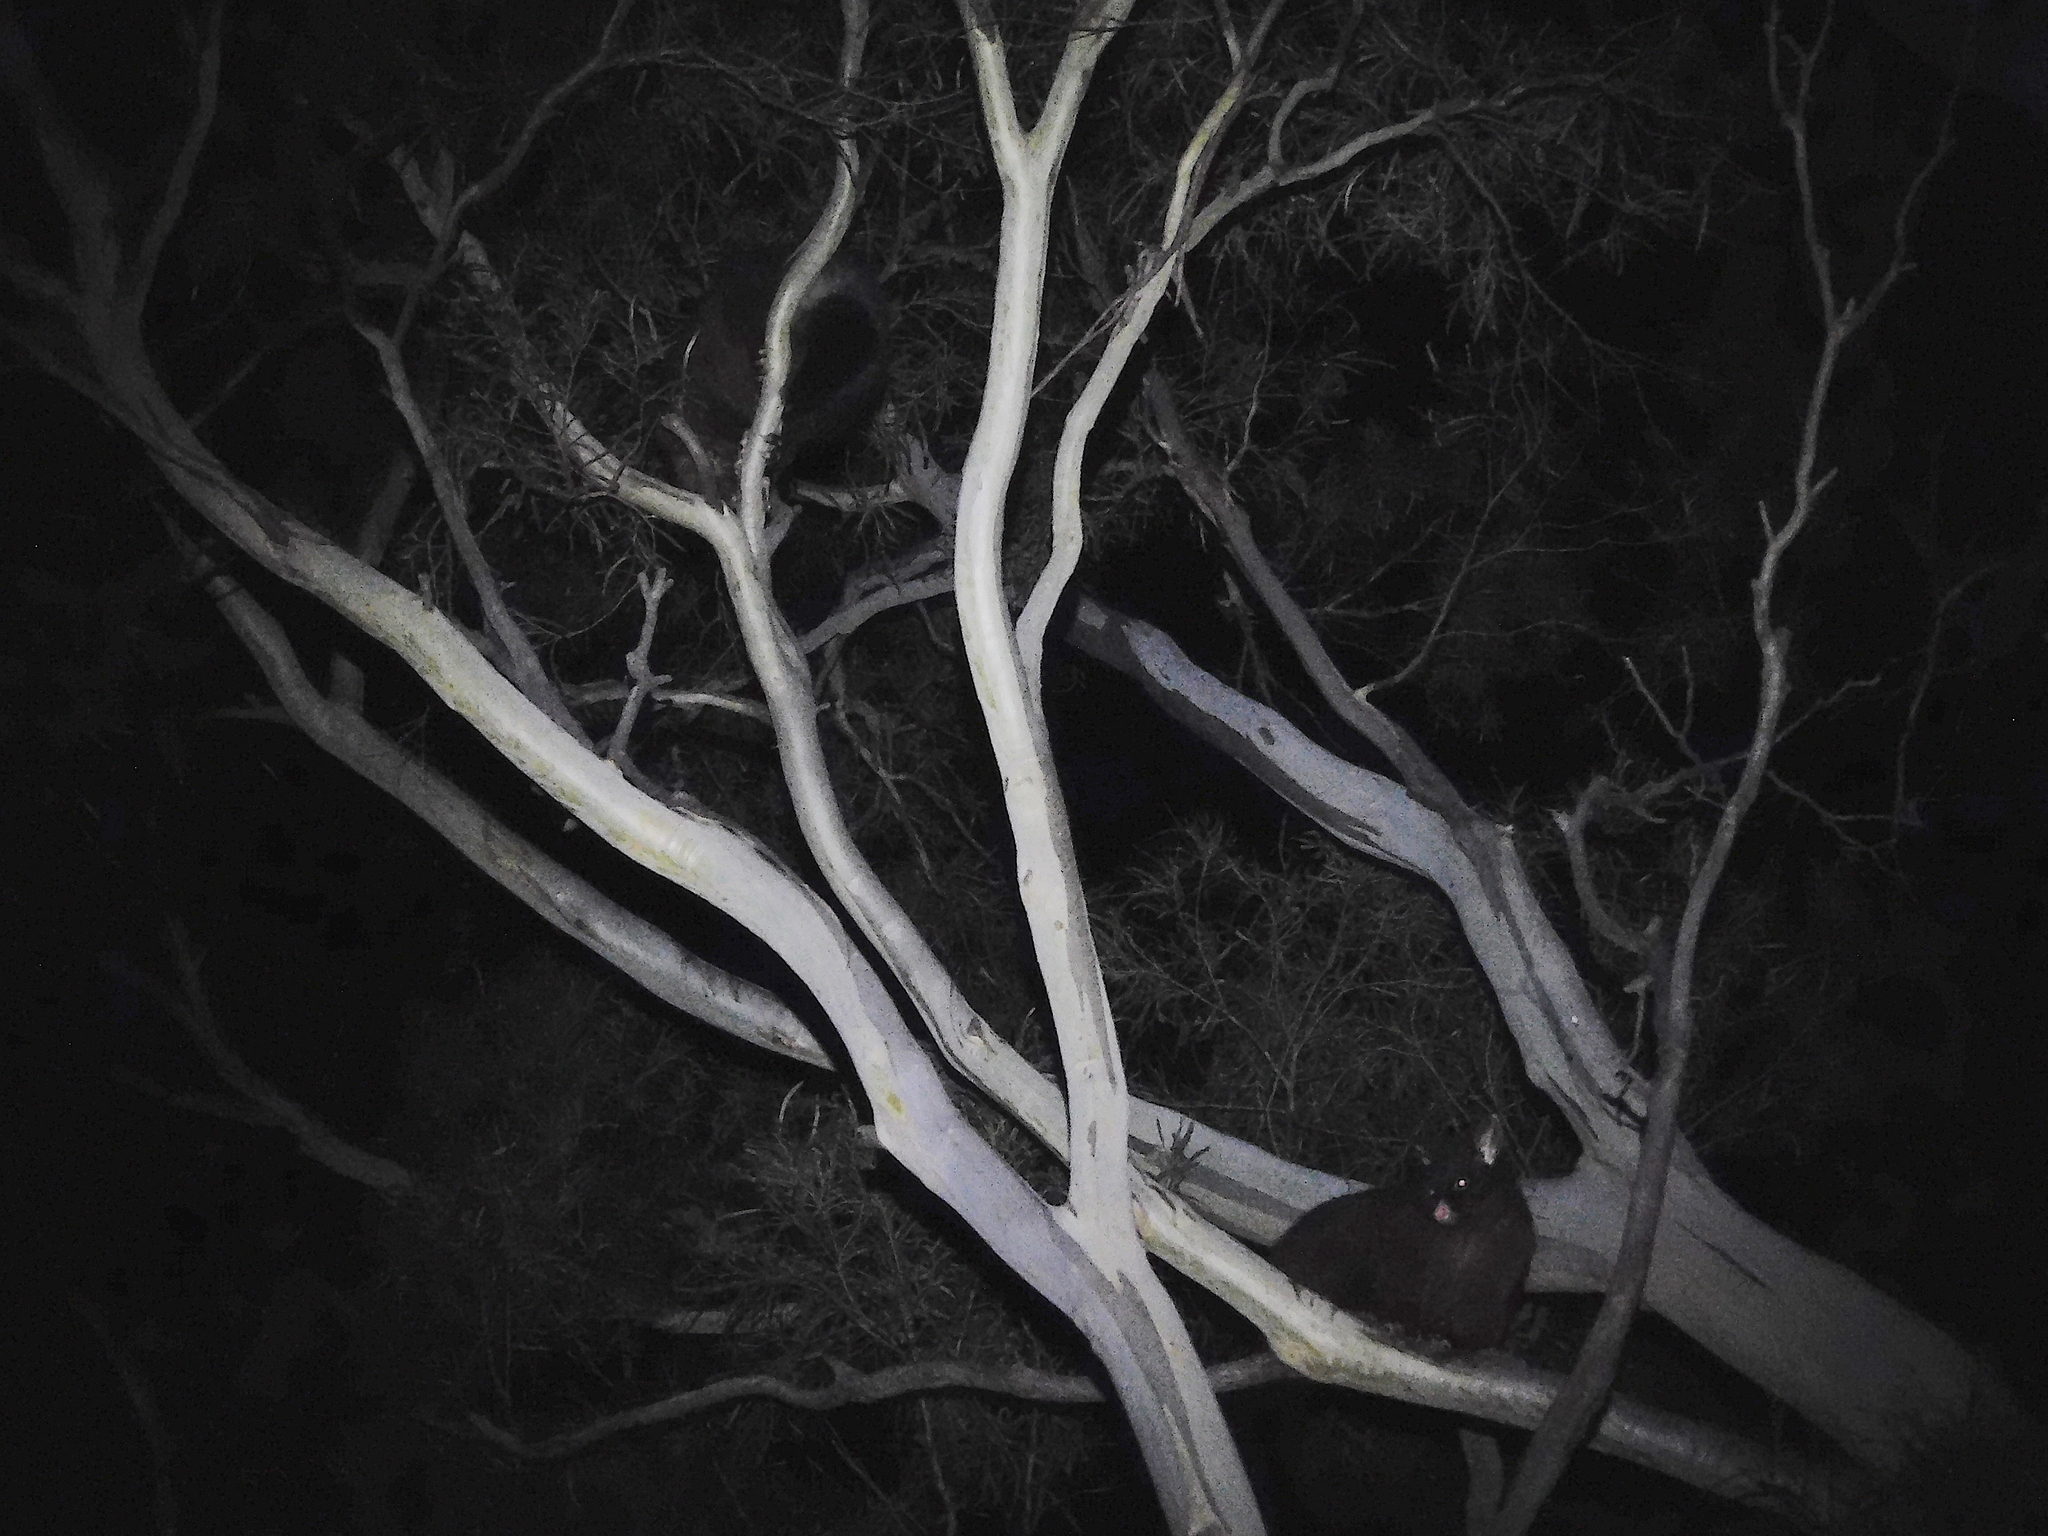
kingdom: Animalia
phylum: Chordata
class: Mammalia
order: Diprotodontia
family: Phalangeridae
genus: Trichosurus
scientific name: Trichosurus vulpecula
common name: Common brushtail
